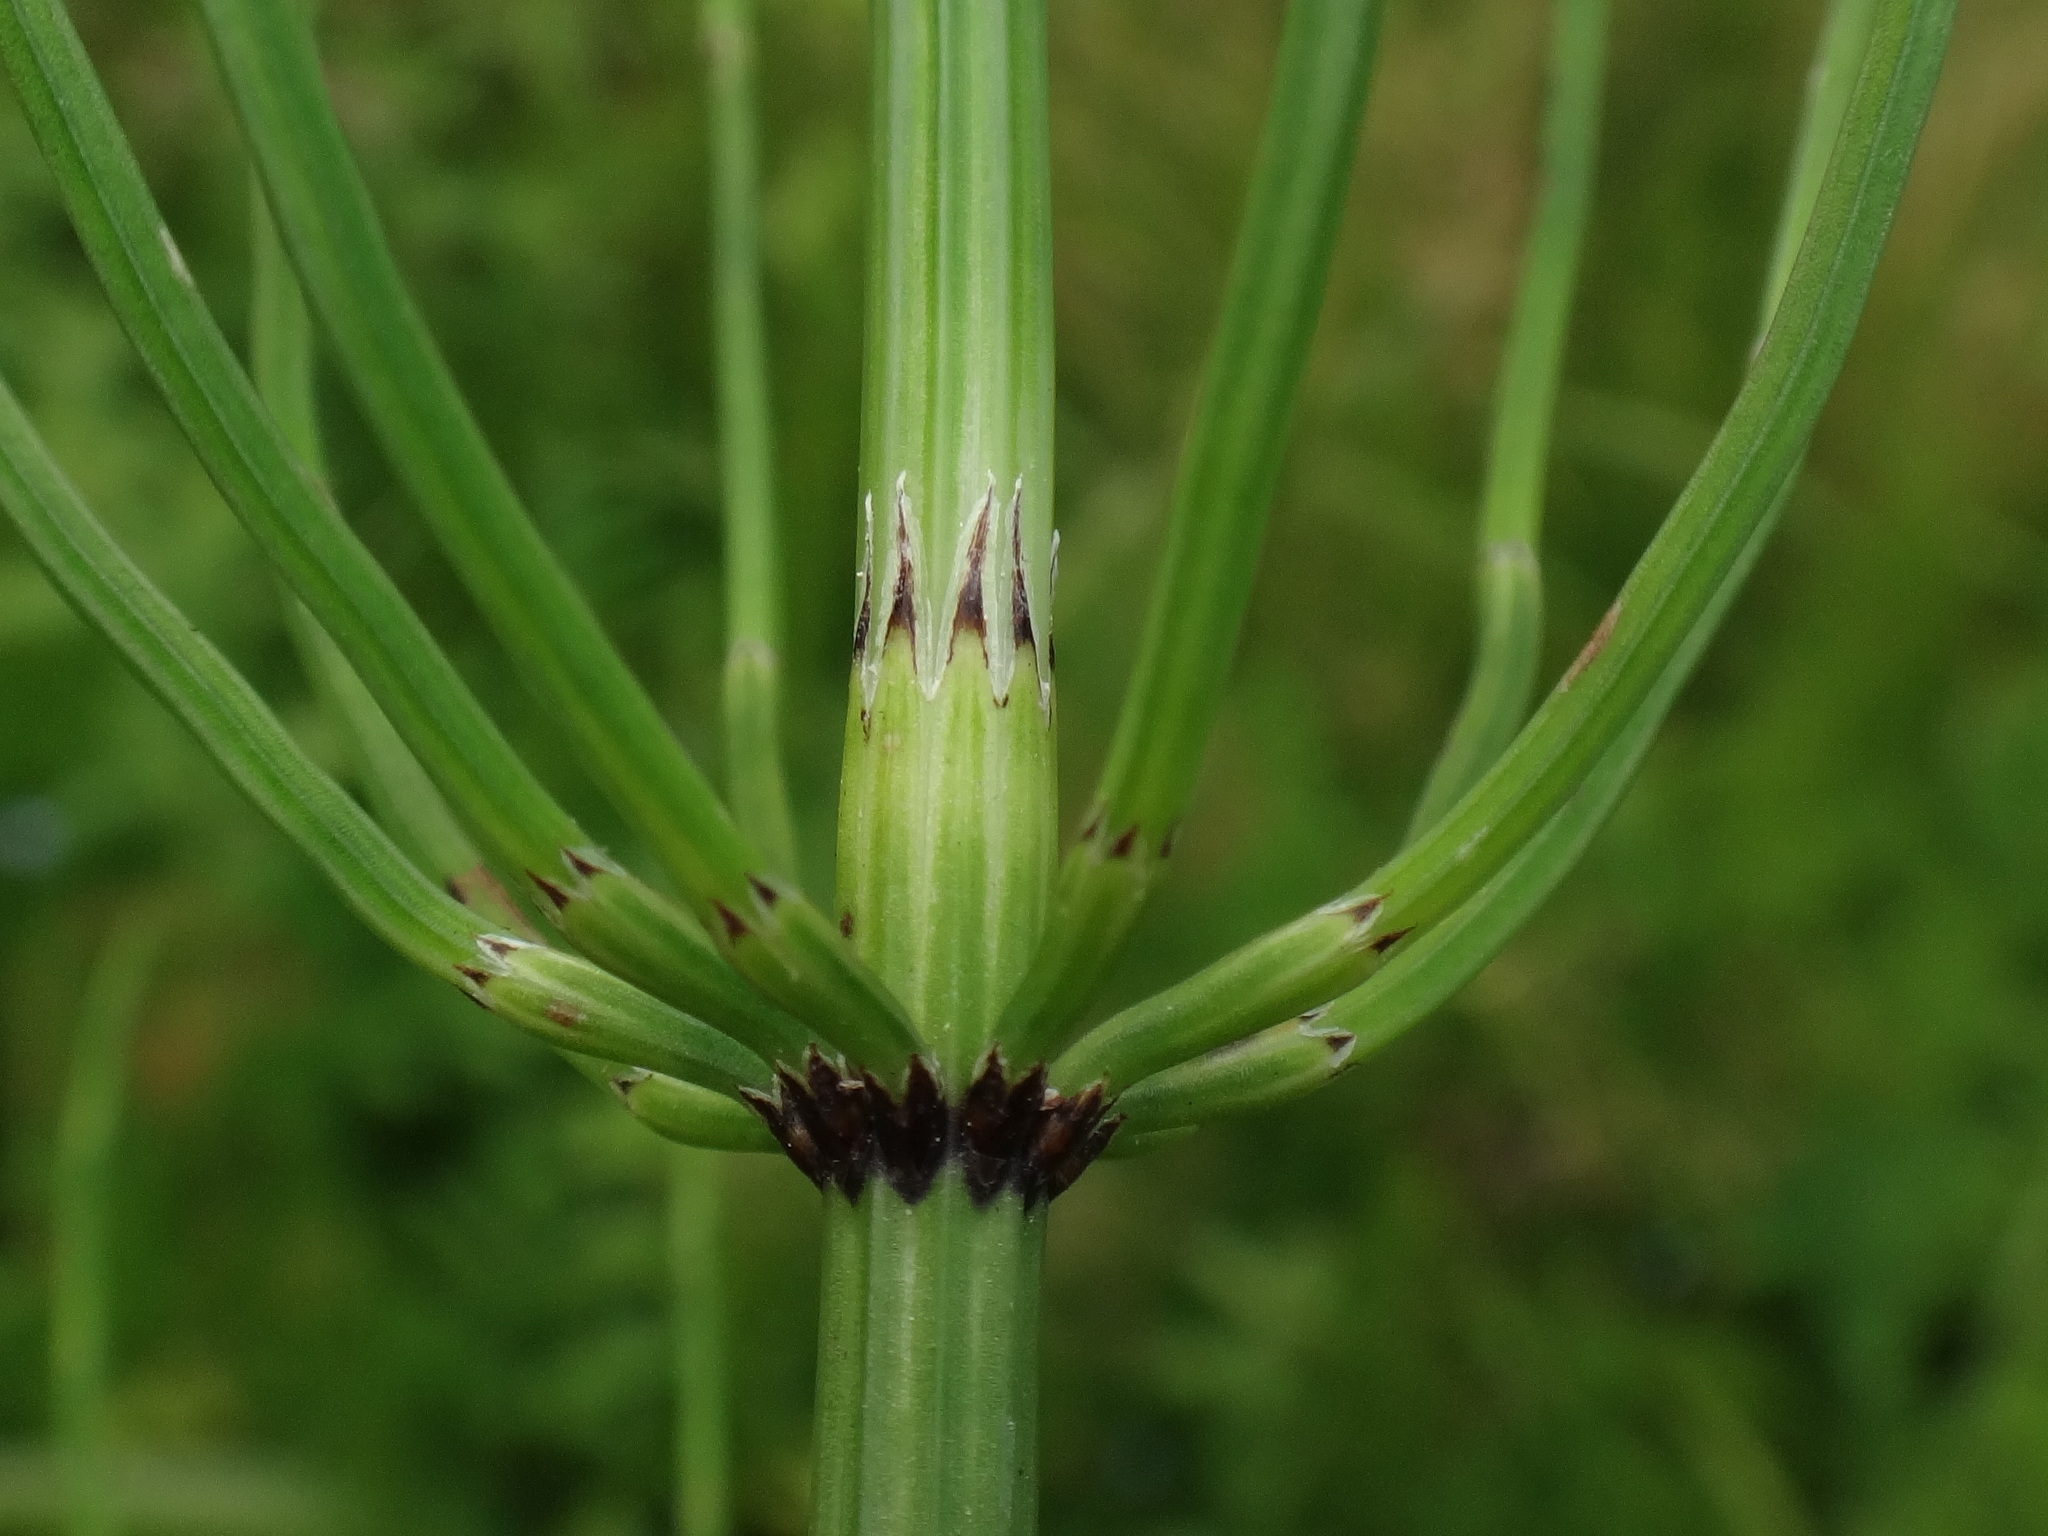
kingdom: Plantae
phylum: Tracheophyta
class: Polypodiopsida
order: Equisetales
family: Equisetaceae
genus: Equisetum
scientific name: Equisetum palustre
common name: Marsh horsetail
